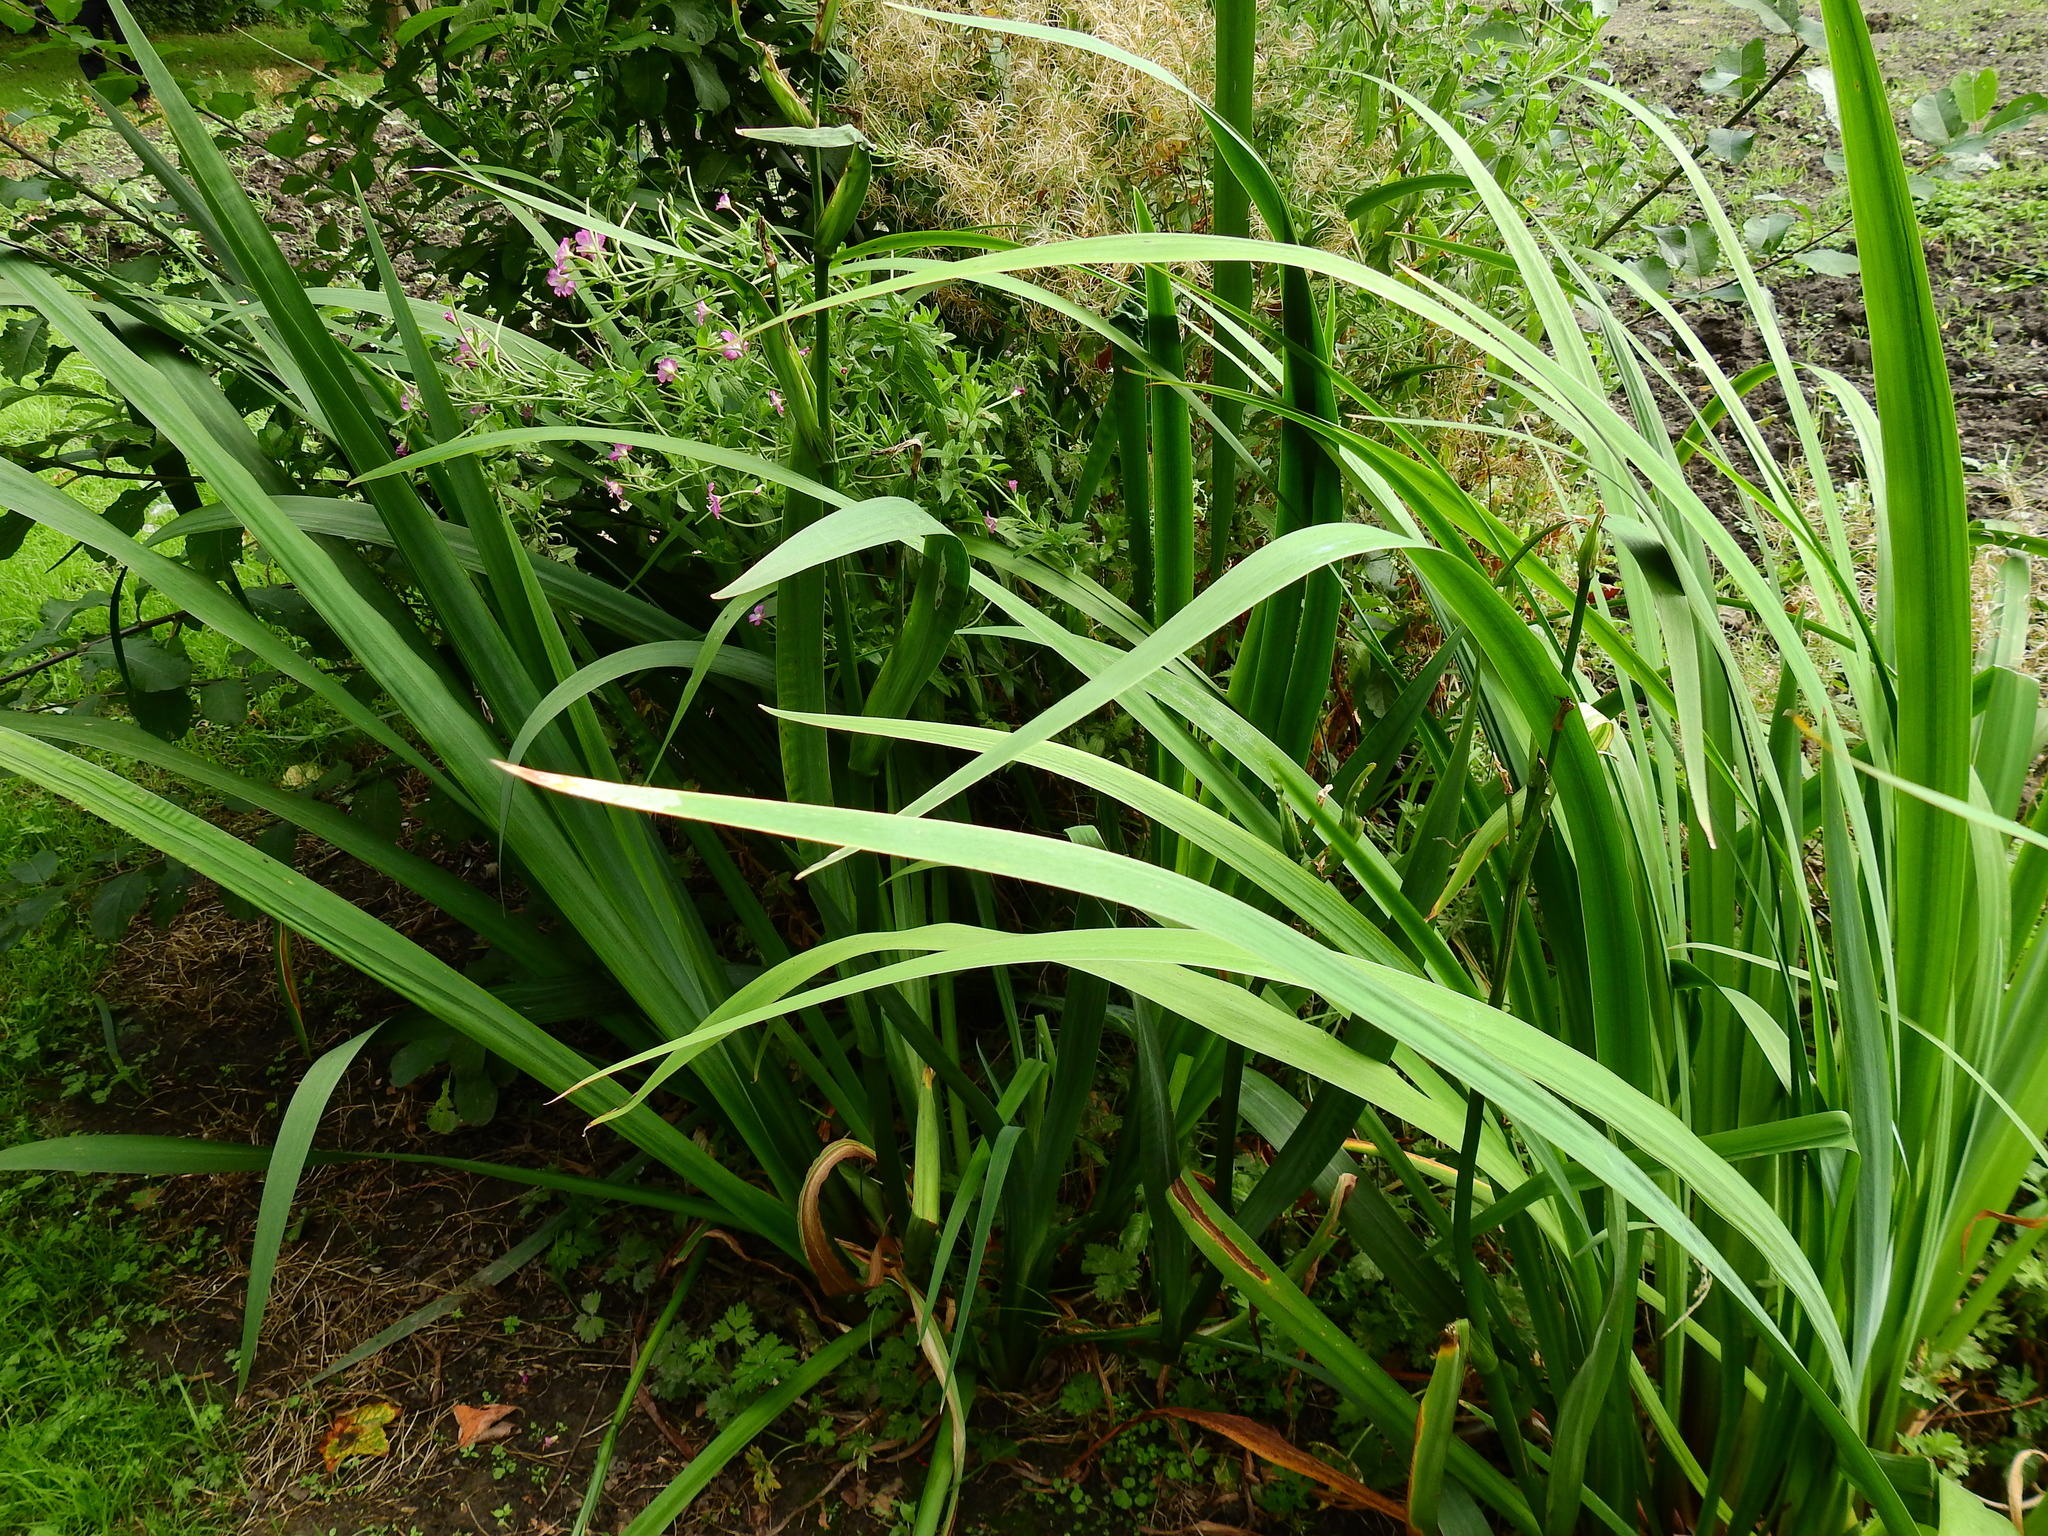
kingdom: Plantae
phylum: Tracheophyta
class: Liliopsida
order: Asparagales
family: Iridaceae
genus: Iris
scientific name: Iris pseudacorus
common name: Yellow flag
